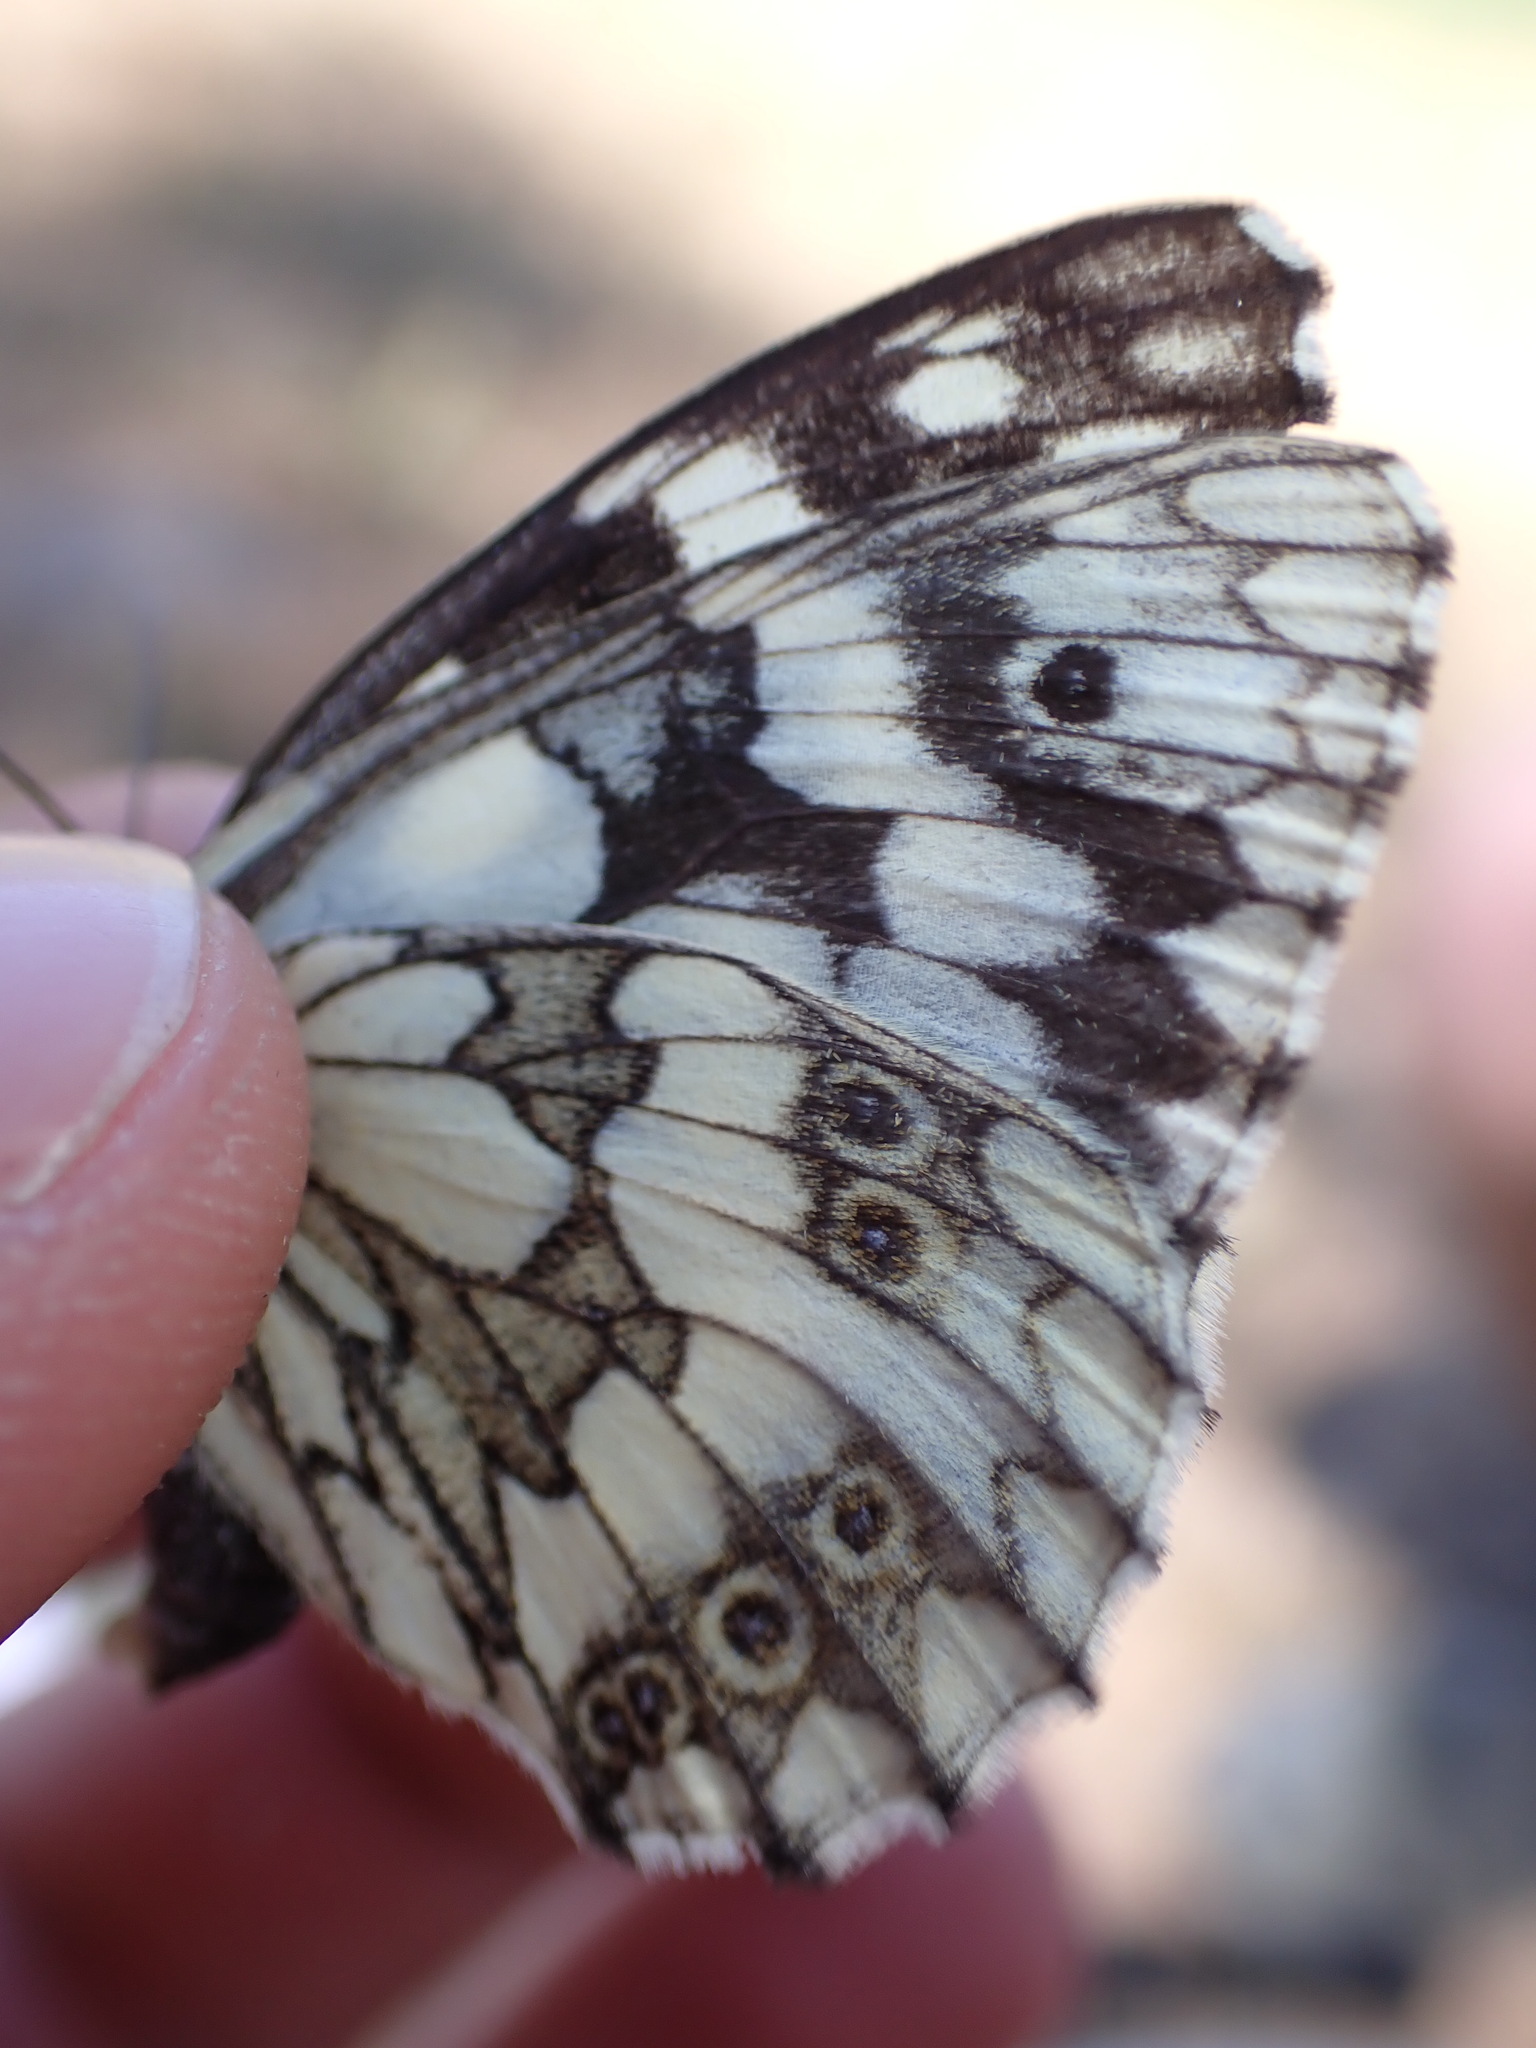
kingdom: Animalia
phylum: Arthropoda
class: Insecta
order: Lepidoptera
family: Nymphalidae
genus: Melanargia
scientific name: Melanargia galathea
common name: Marbled white
